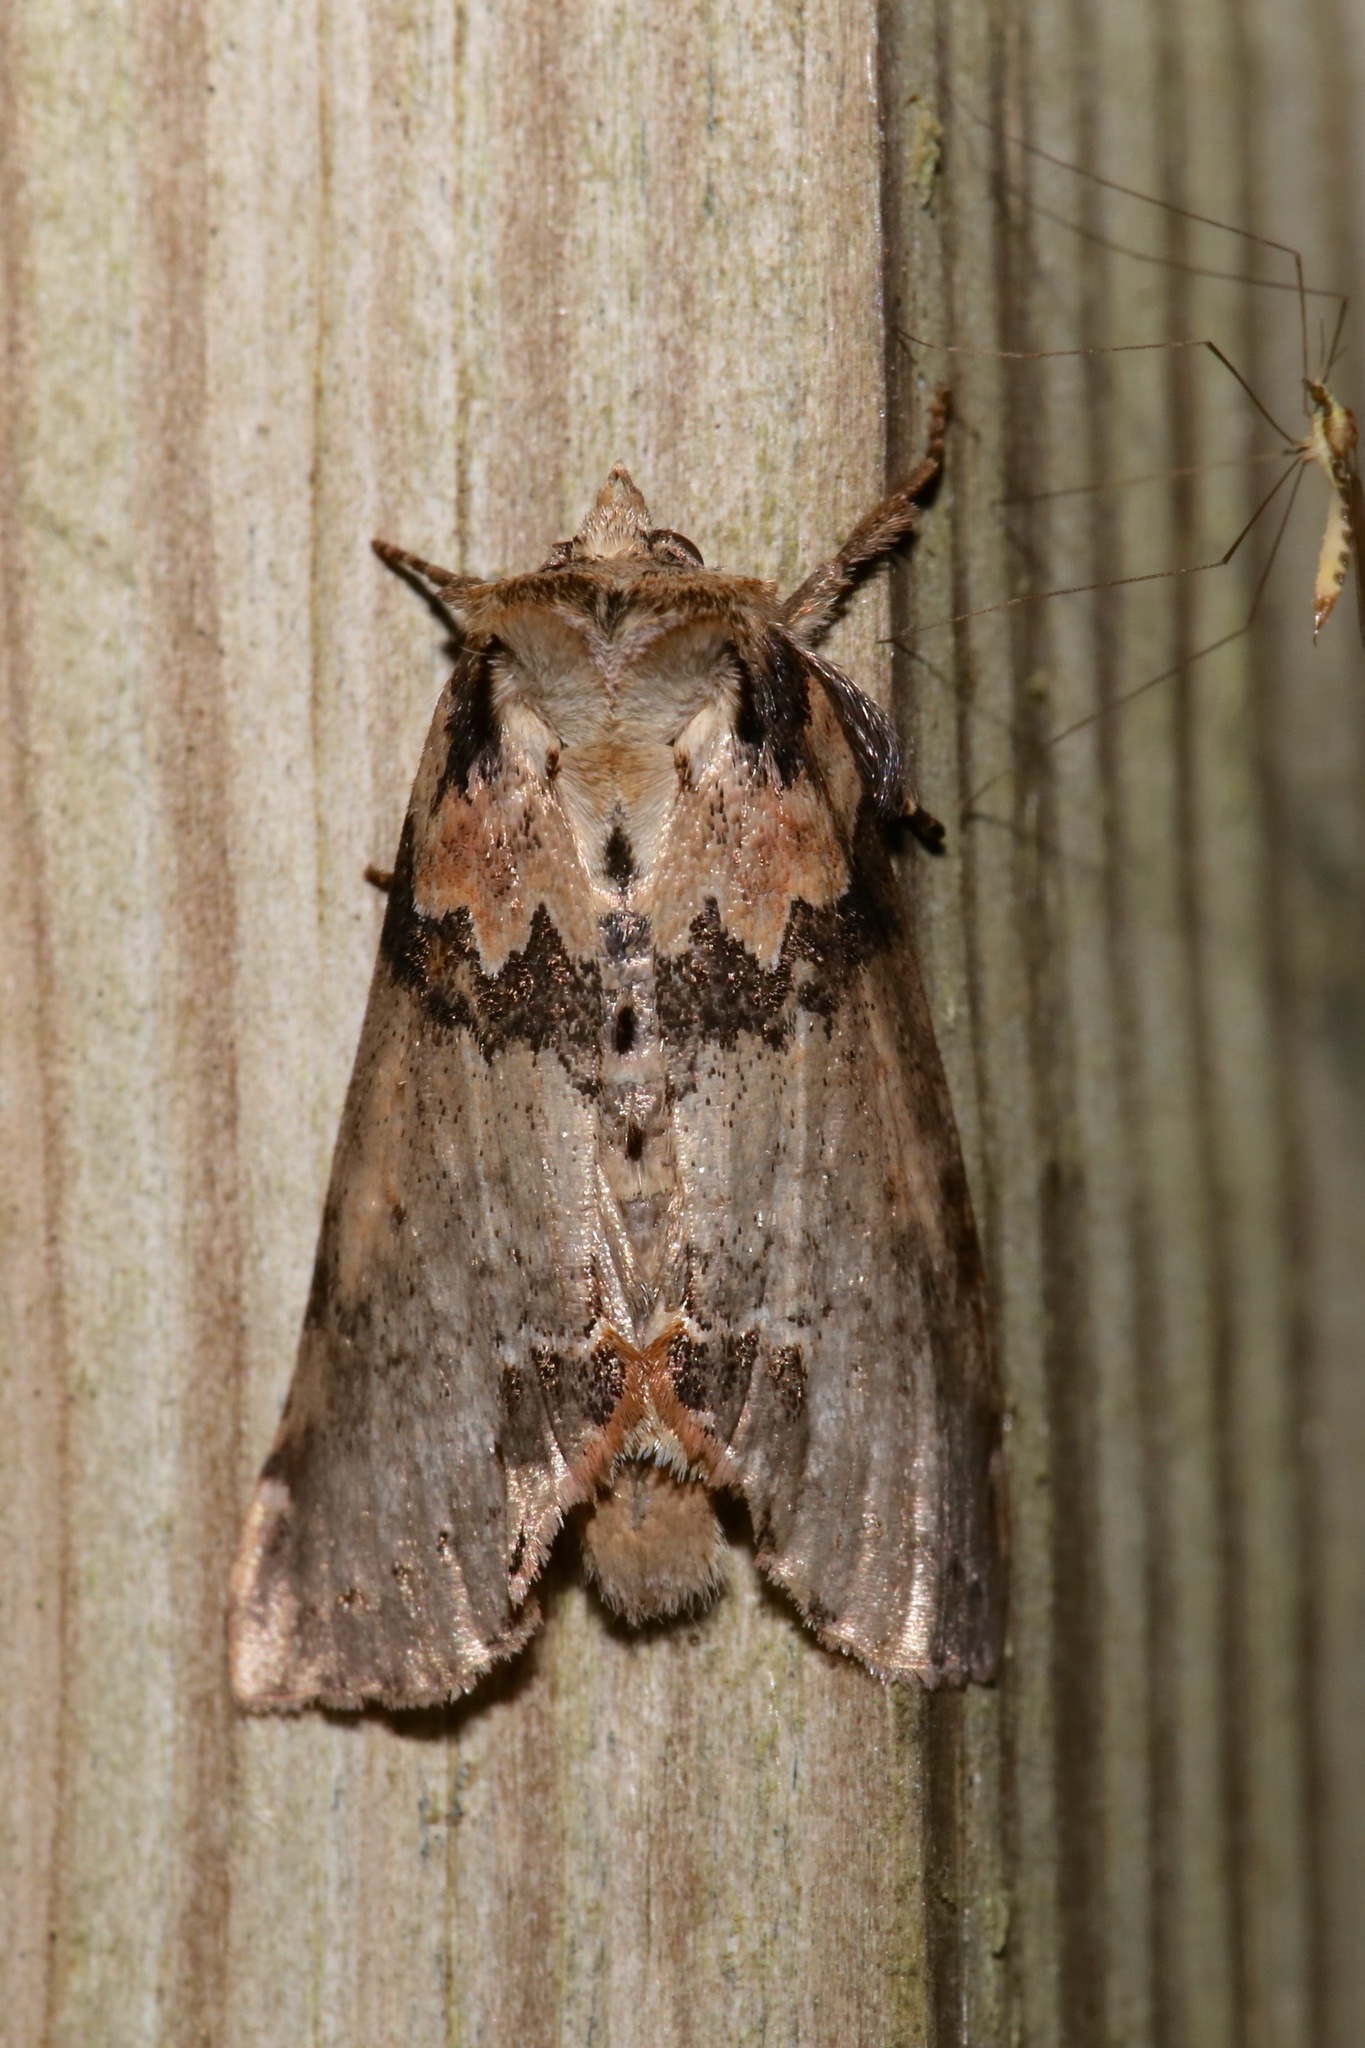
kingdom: Animalia
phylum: Arthropoda
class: Insecta
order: Lepidoptera
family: Drepanidae
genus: Pseudothyatira
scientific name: Pseudothyatira cymatophoroides
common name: Tufted thyatirid moth
